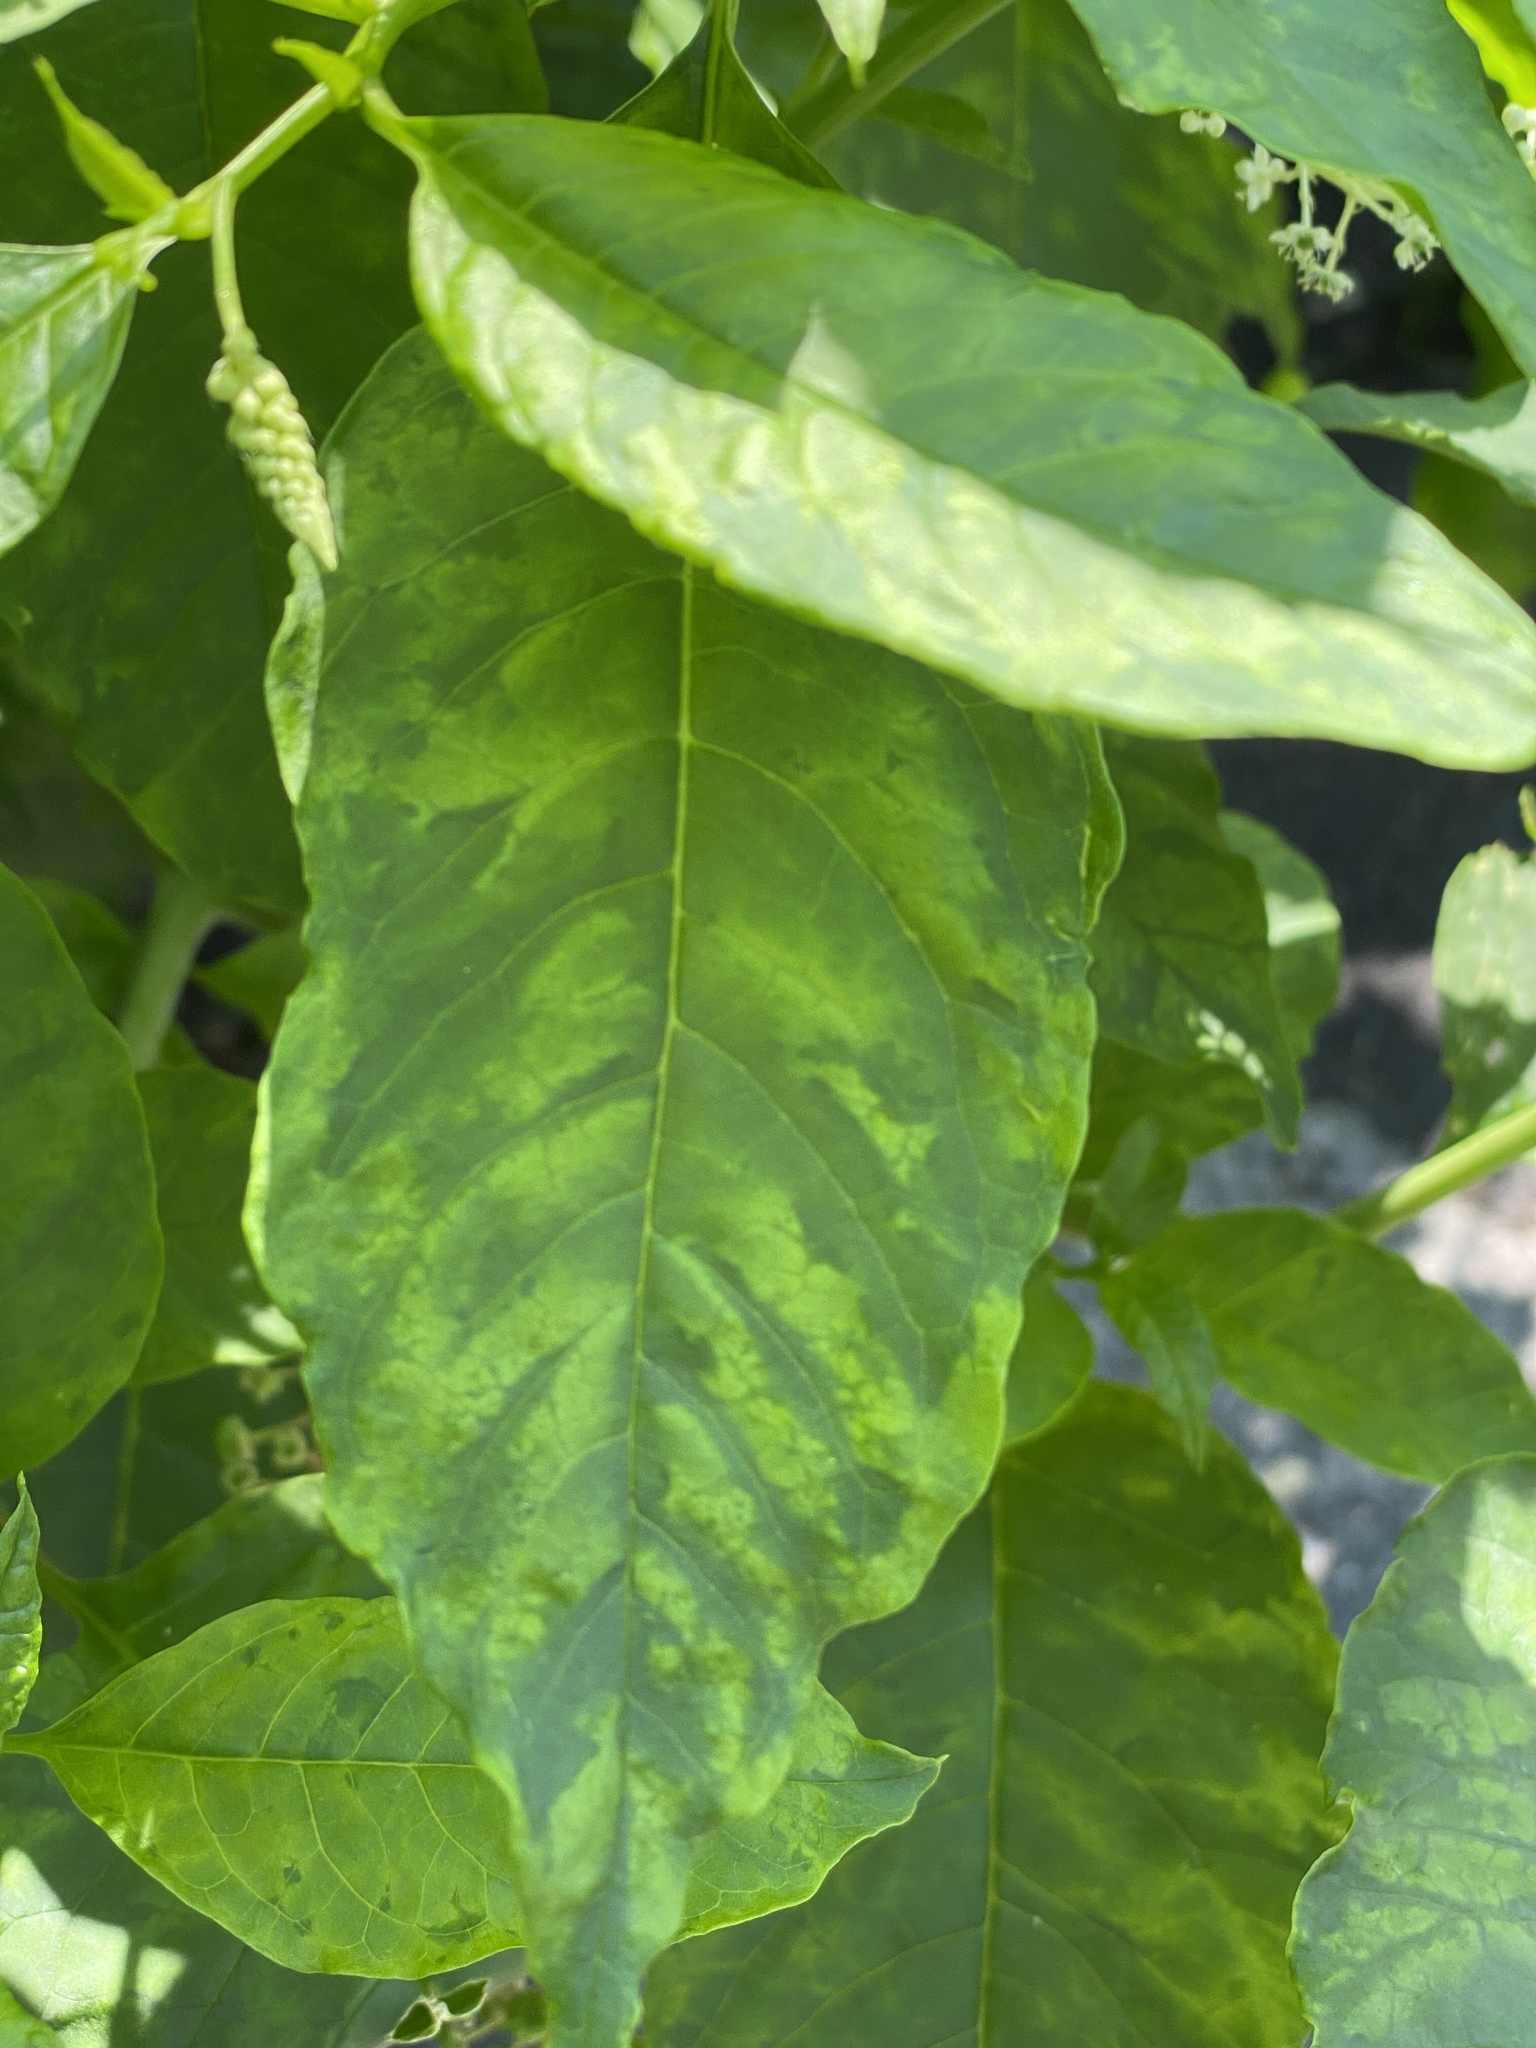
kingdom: Viruses
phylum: Pisuviricota
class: Stelpaviricetes
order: Patatavirales
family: Potyviridae
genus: Potyvirus
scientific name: Potyvirus Pokeweed mosaic virus
